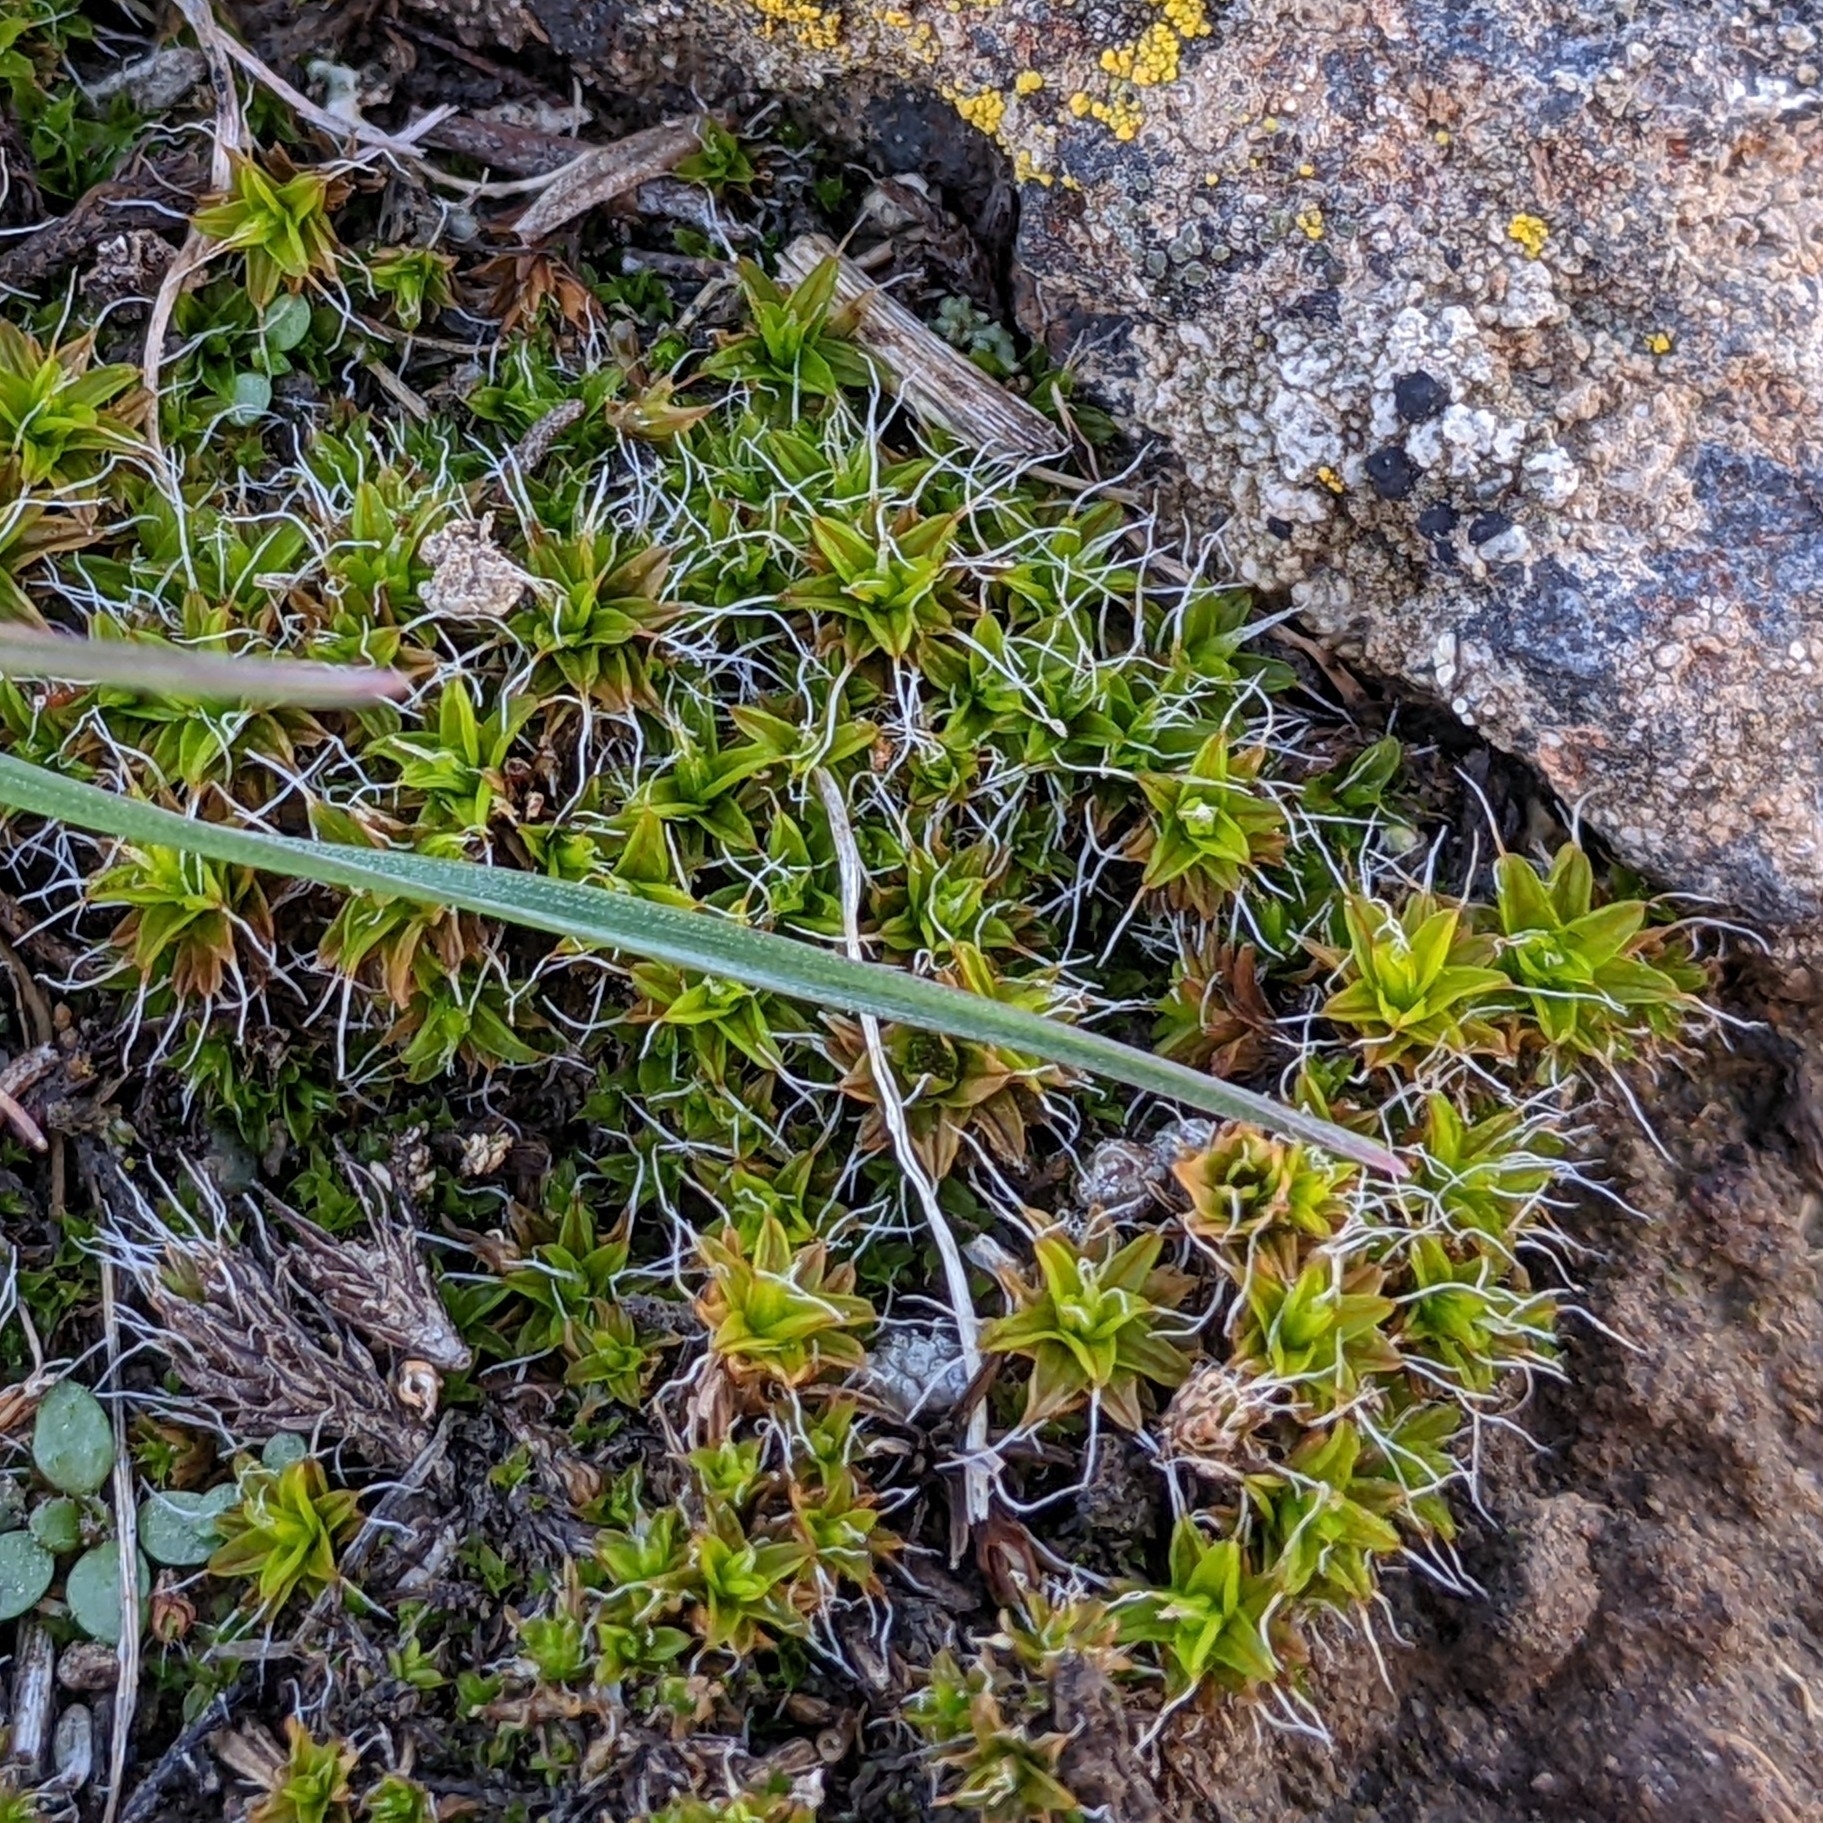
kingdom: Plantae
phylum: Bryophyta
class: Bryopsida
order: Pottiales
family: Pottiaceae
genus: Syntrichia
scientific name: Syntrichia ruralis
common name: Sidewalk screw moss
